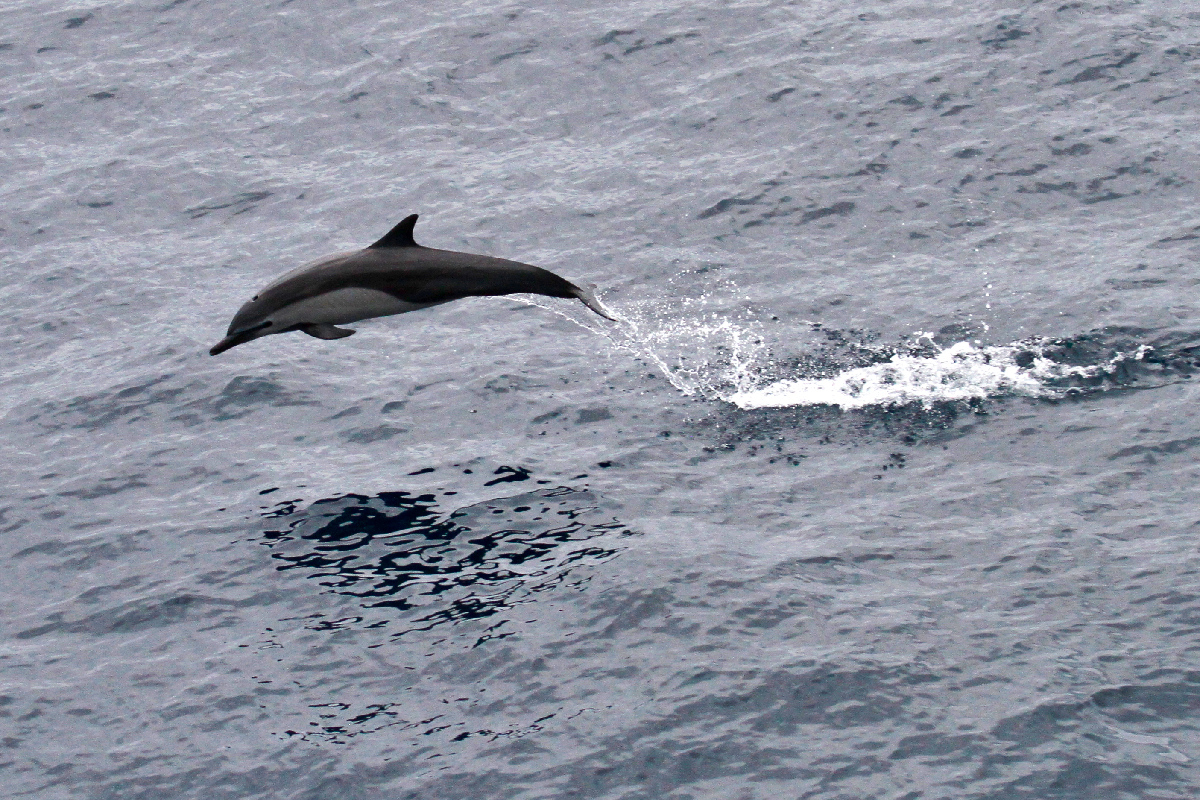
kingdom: Animalia
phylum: Chordata
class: Mammalia
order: Cetacea
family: Delphinidae
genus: Delphinus
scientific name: Delphinus delphis
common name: Common dolphin
